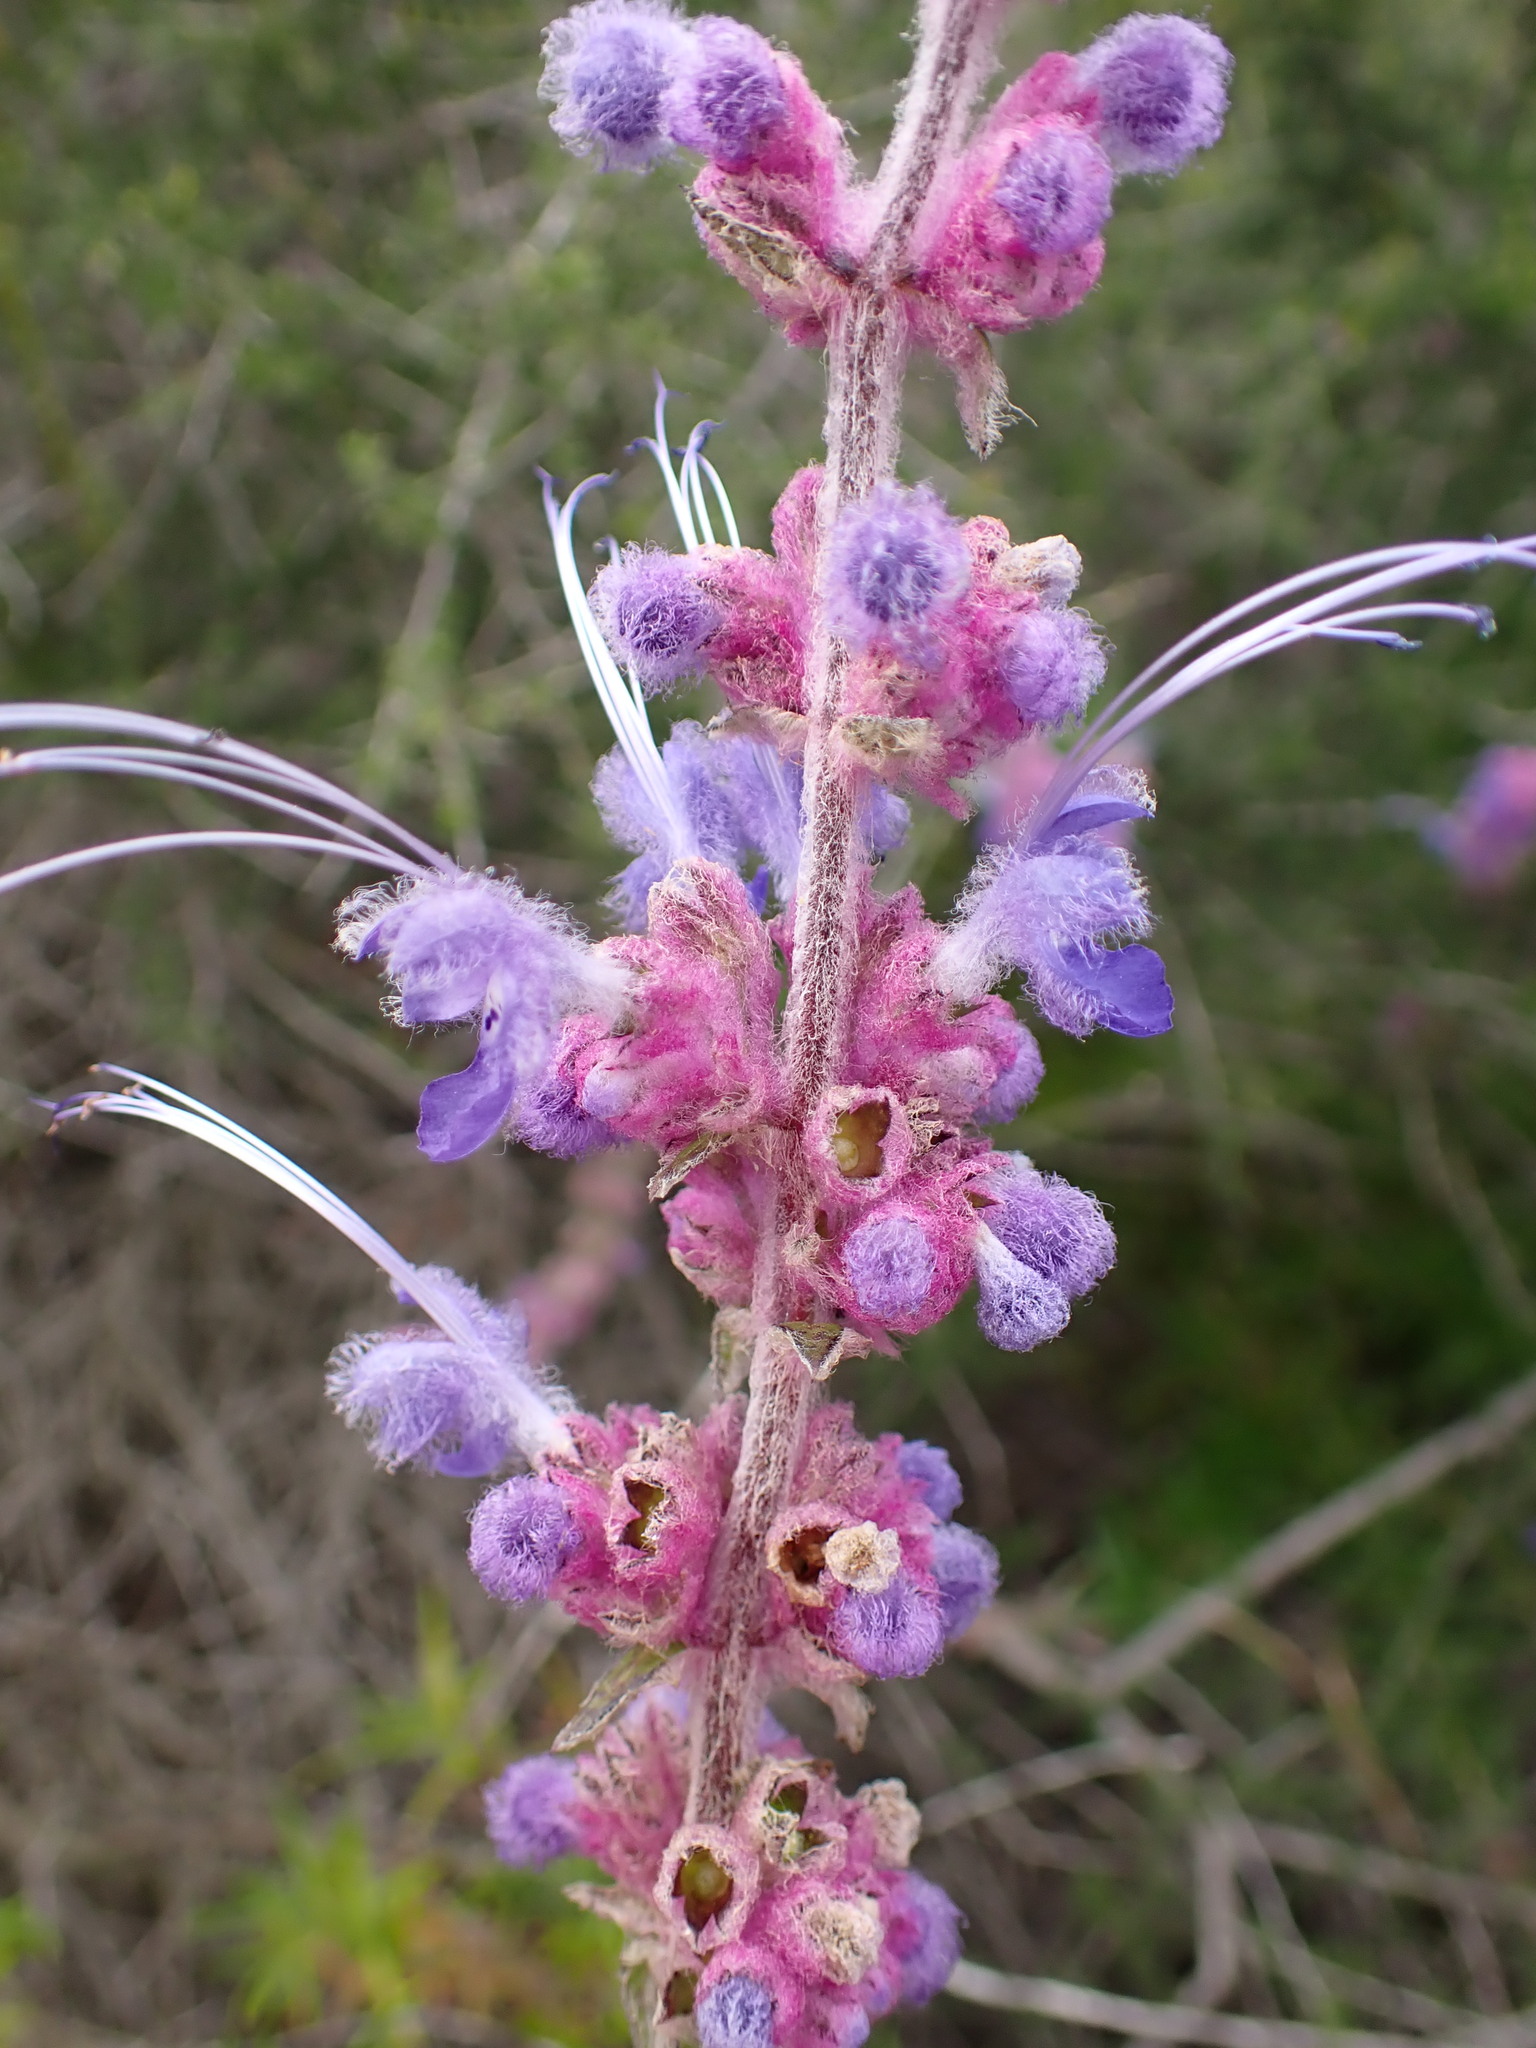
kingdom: Plantae
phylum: Tracheophyta
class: Magnoliopsida
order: Lamiales
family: Lamiaceae
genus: Trichostema
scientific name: Trichostema lanatum
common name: Woolly bluecurls
